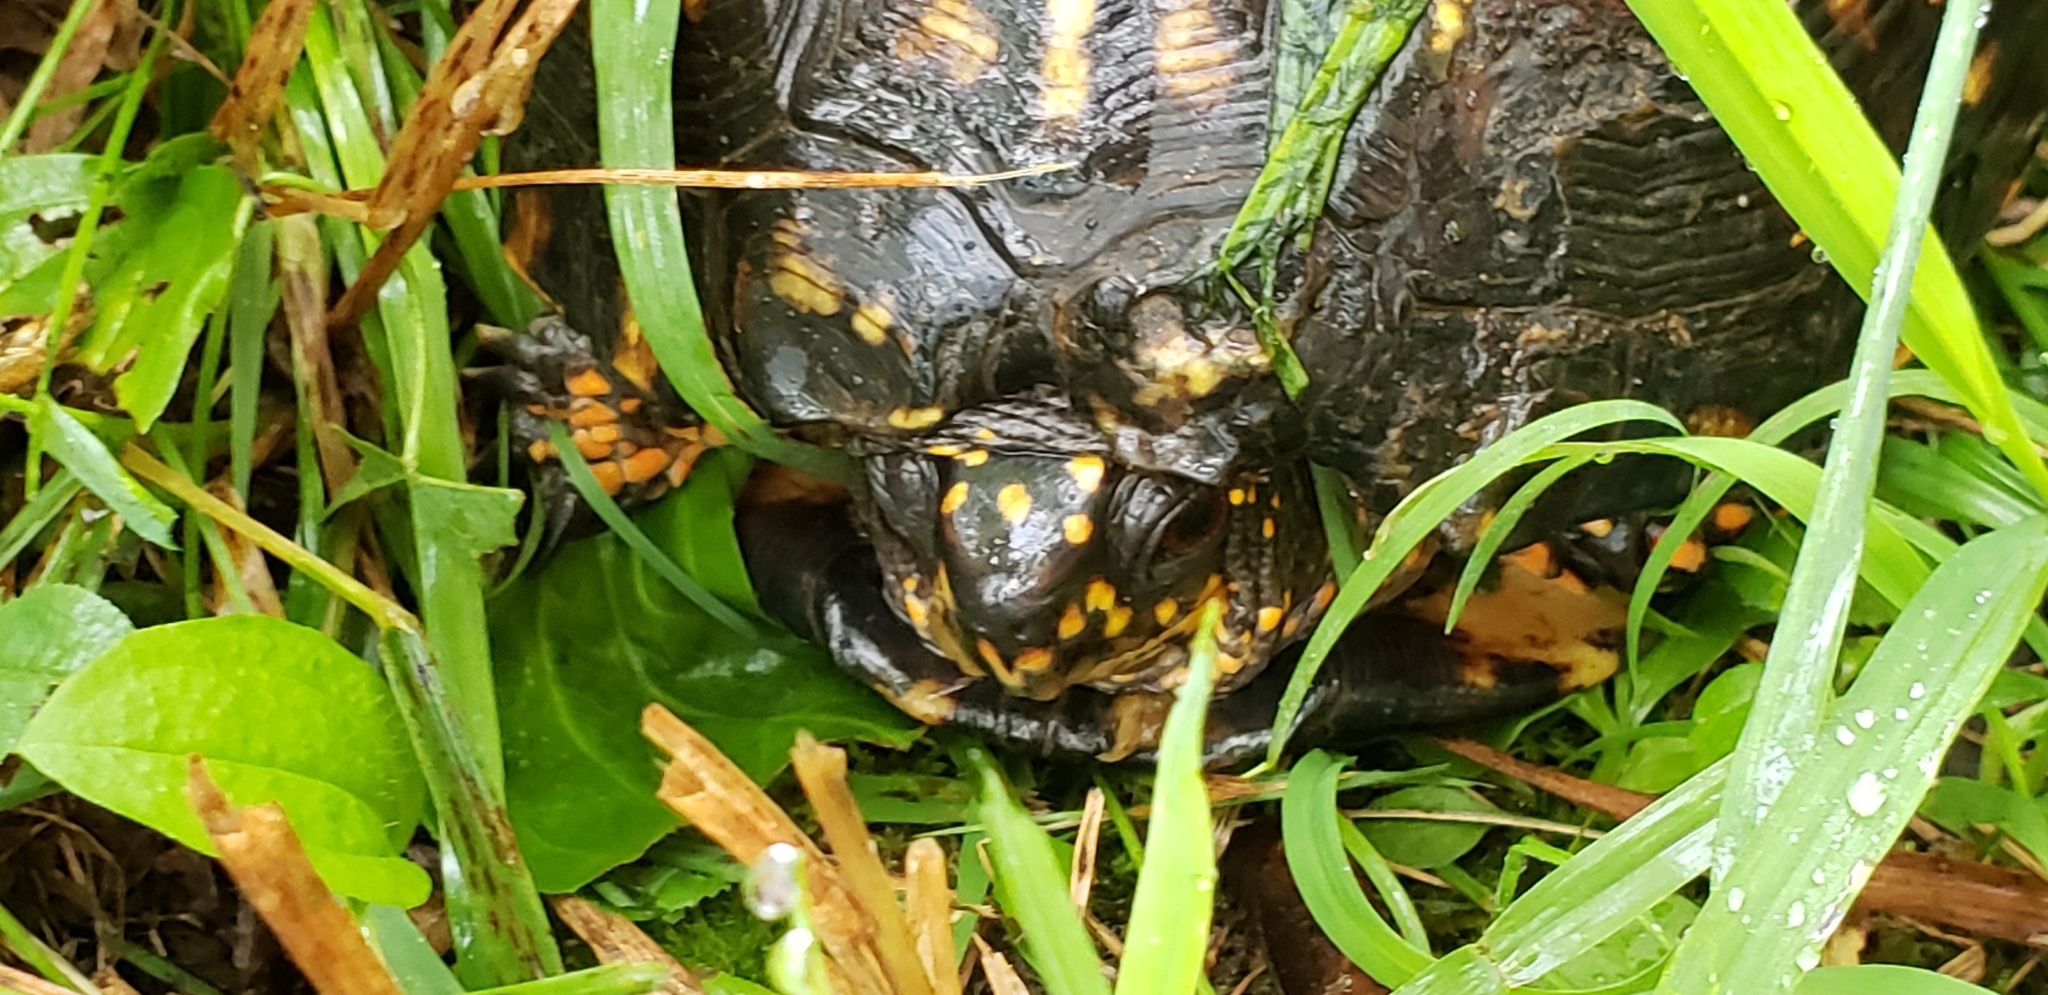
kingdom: Animalia
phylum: Chordata
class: Testudines
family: Emydidae
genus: Terrapene
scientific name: Terrapene carolina
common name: Common box turtle
